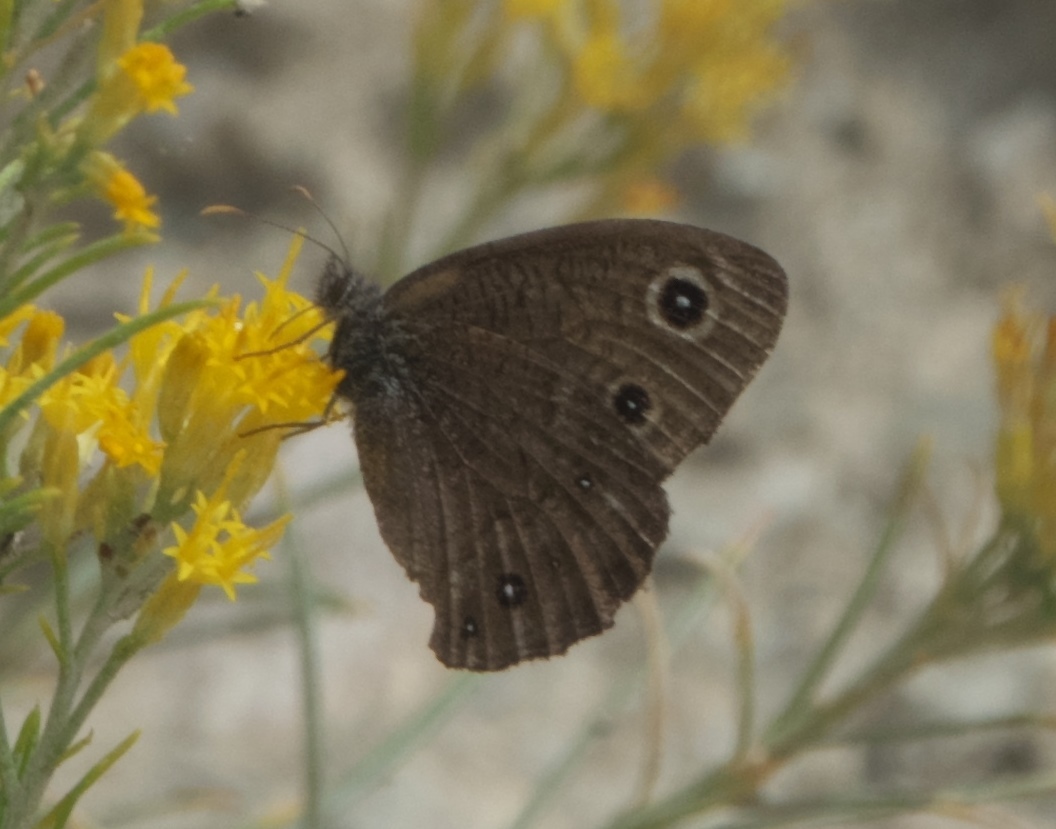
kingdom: Animalia
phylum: Arthropoda
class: Insecta
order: Lepidoptera
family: Nymphalidae
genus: Cercyonis
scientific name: Cercyonis sthenele
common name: Great basin wood-nymph
